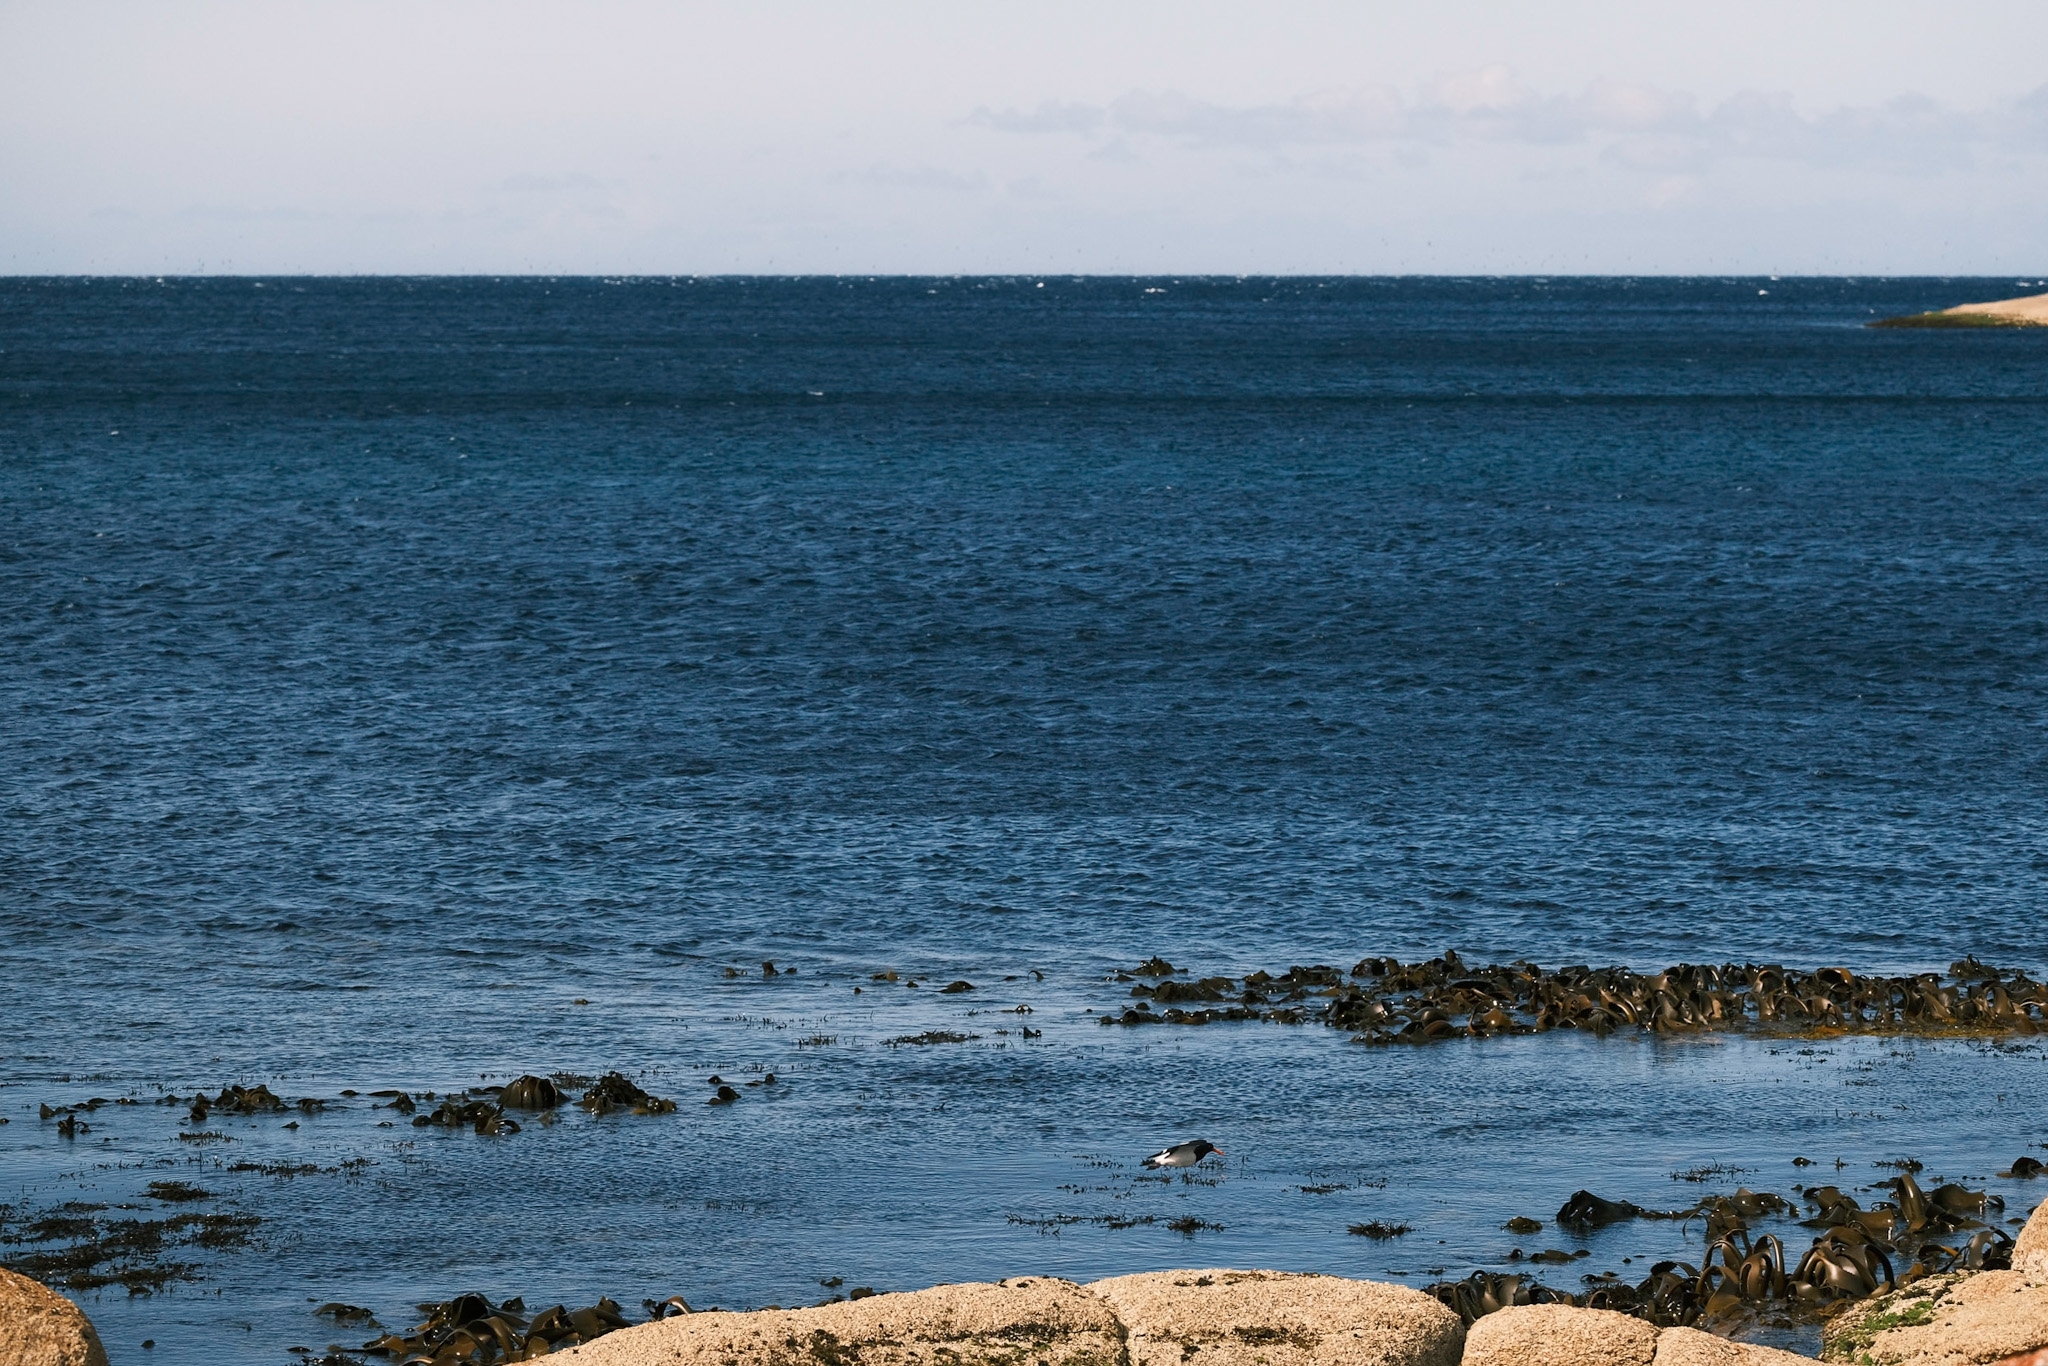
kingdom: Animalia
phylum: Chordata
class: Aves
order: Charadriiformes
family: Haematopodidae
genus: Haematopus
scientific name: Haematopus longirostris
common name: Pied oystercatcher
